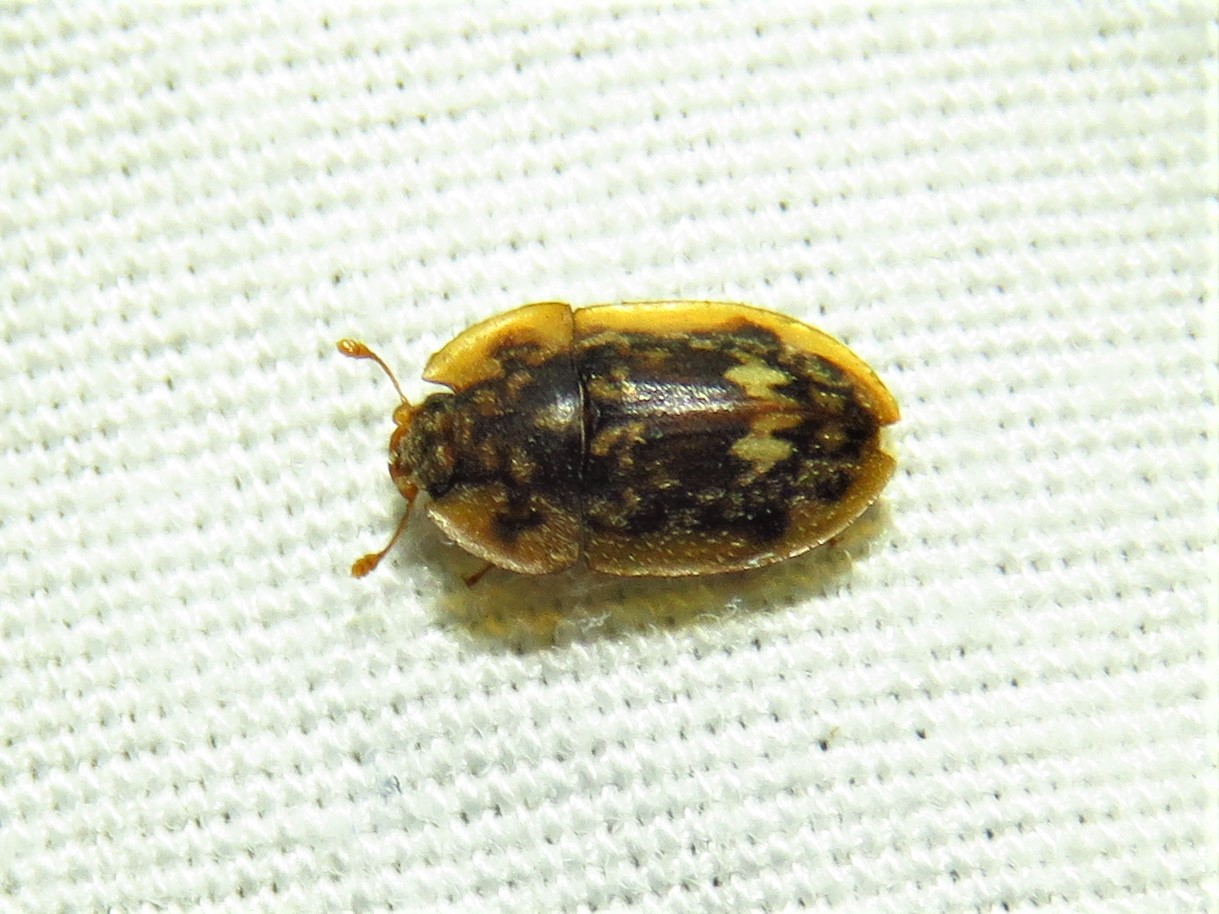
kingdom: Animalia
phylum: Arthropoda
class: Insecta
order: Coleoptera
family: Nitidulidae
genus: Lobiopa
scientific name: Lobiopa undulata
